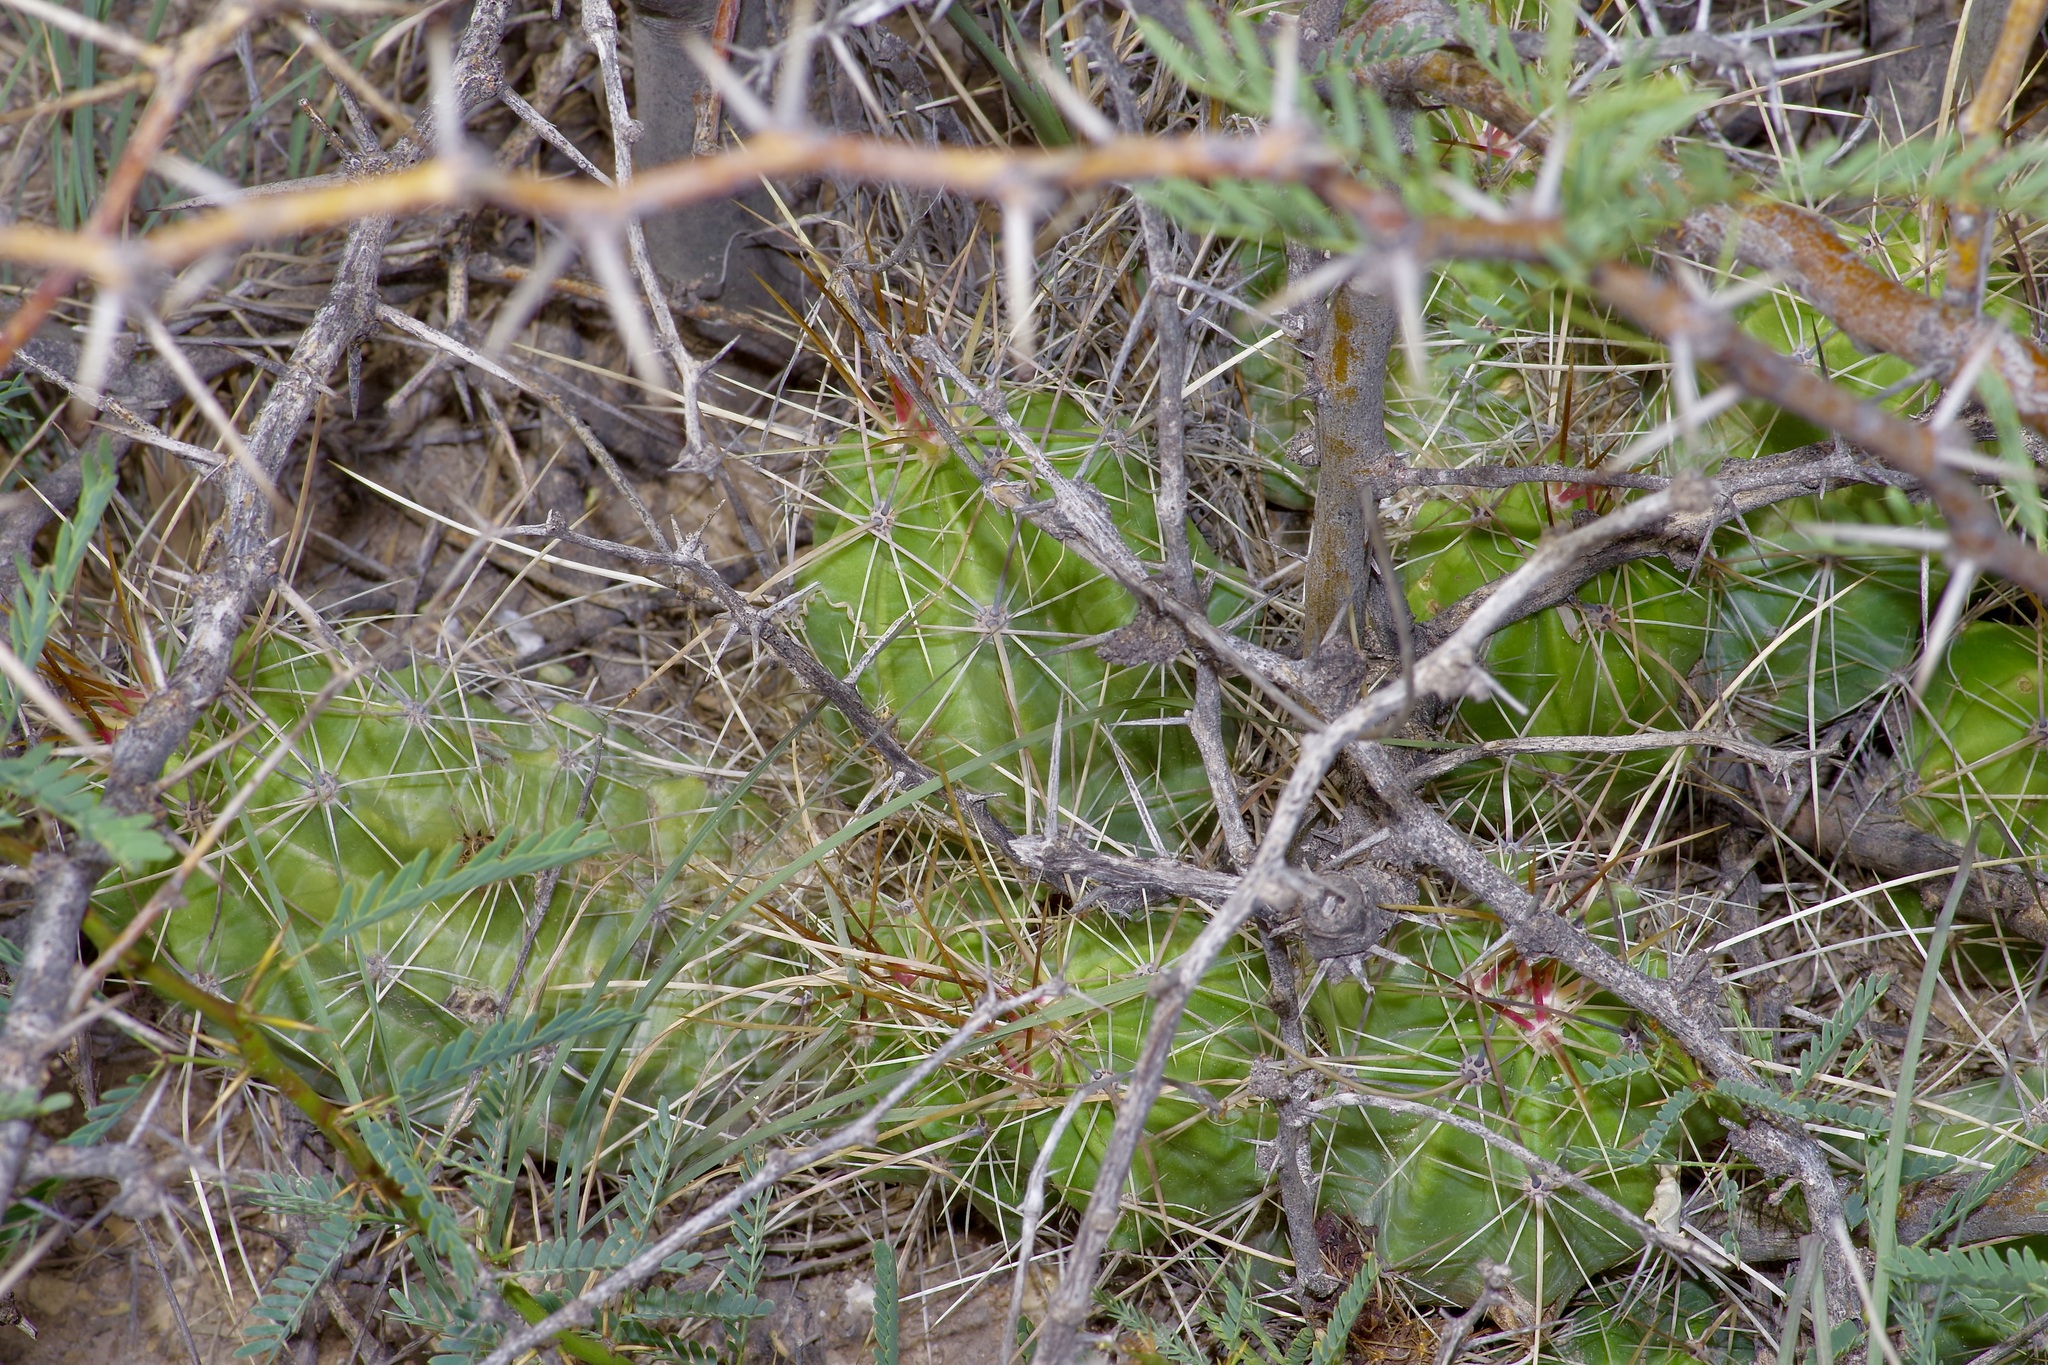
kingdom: Plantae
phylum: Tracheophyta
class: Magnoliopsida
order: Caryophyllales
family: Cactaceae
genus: Echinocereus
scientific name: Echinocereus enneacanthus
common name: Pitaya
